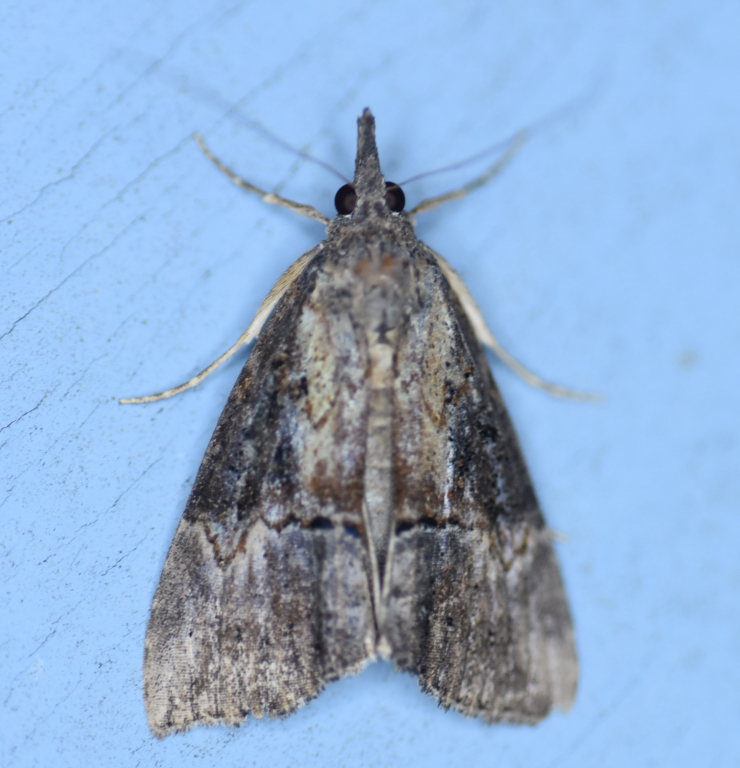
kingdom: Animalia
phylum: Arthropoda
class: Insecta
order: Lepidoptera
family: Erebidae
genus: Hypena
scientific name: Hypena scabra
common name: Green cloverworm
